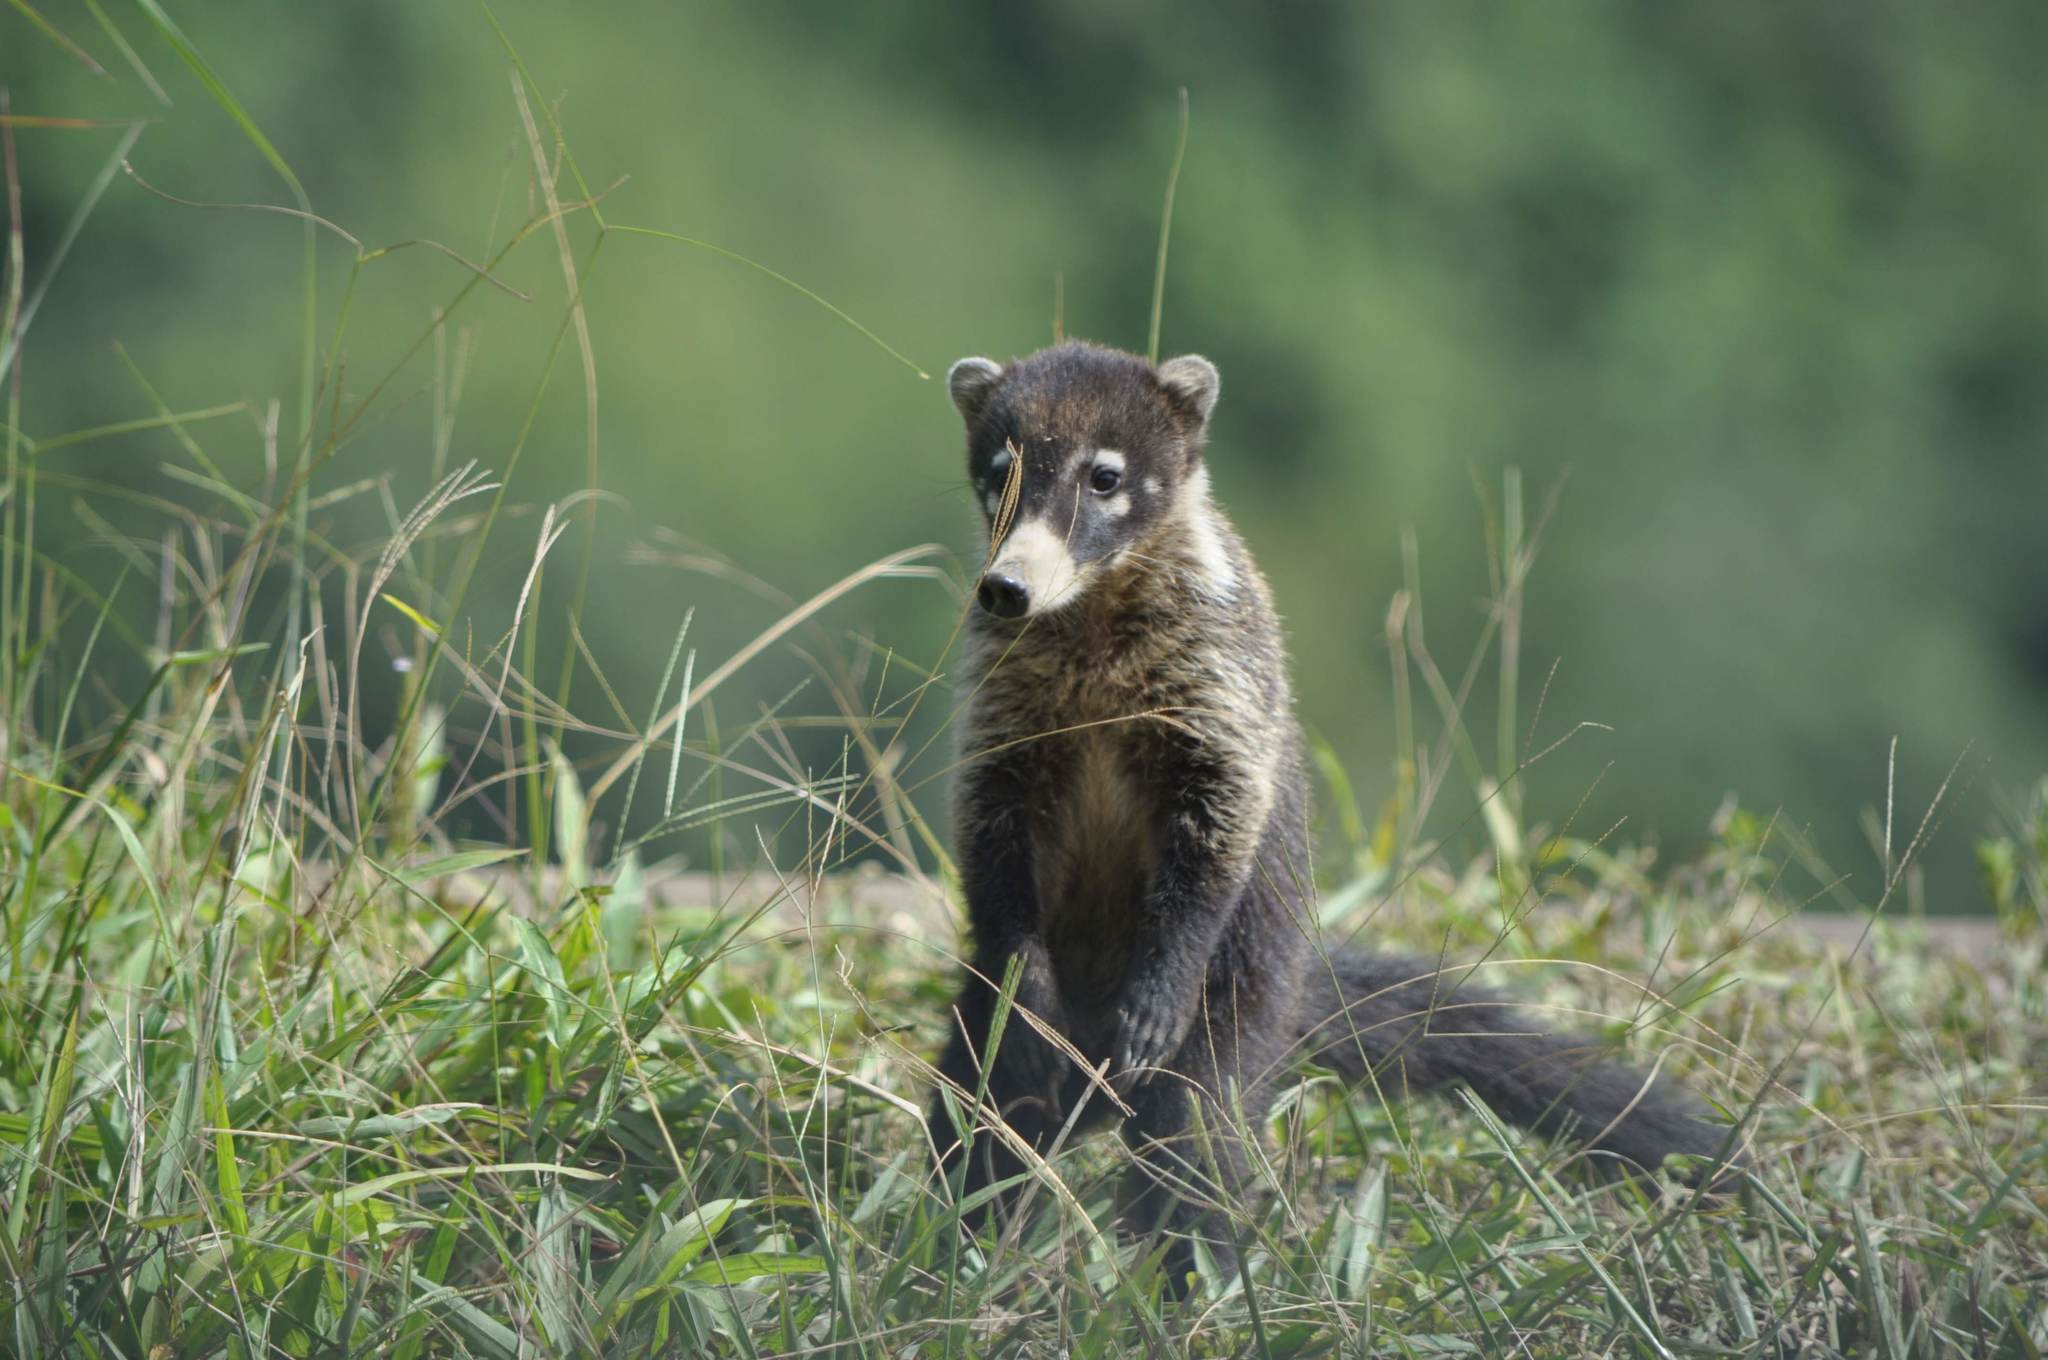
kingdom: Animalia
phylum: Chordata
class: Mammalia
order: Carnivora
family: Procyonidae
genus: Nasua
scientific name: Nasua narica
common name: White-nosed coati
